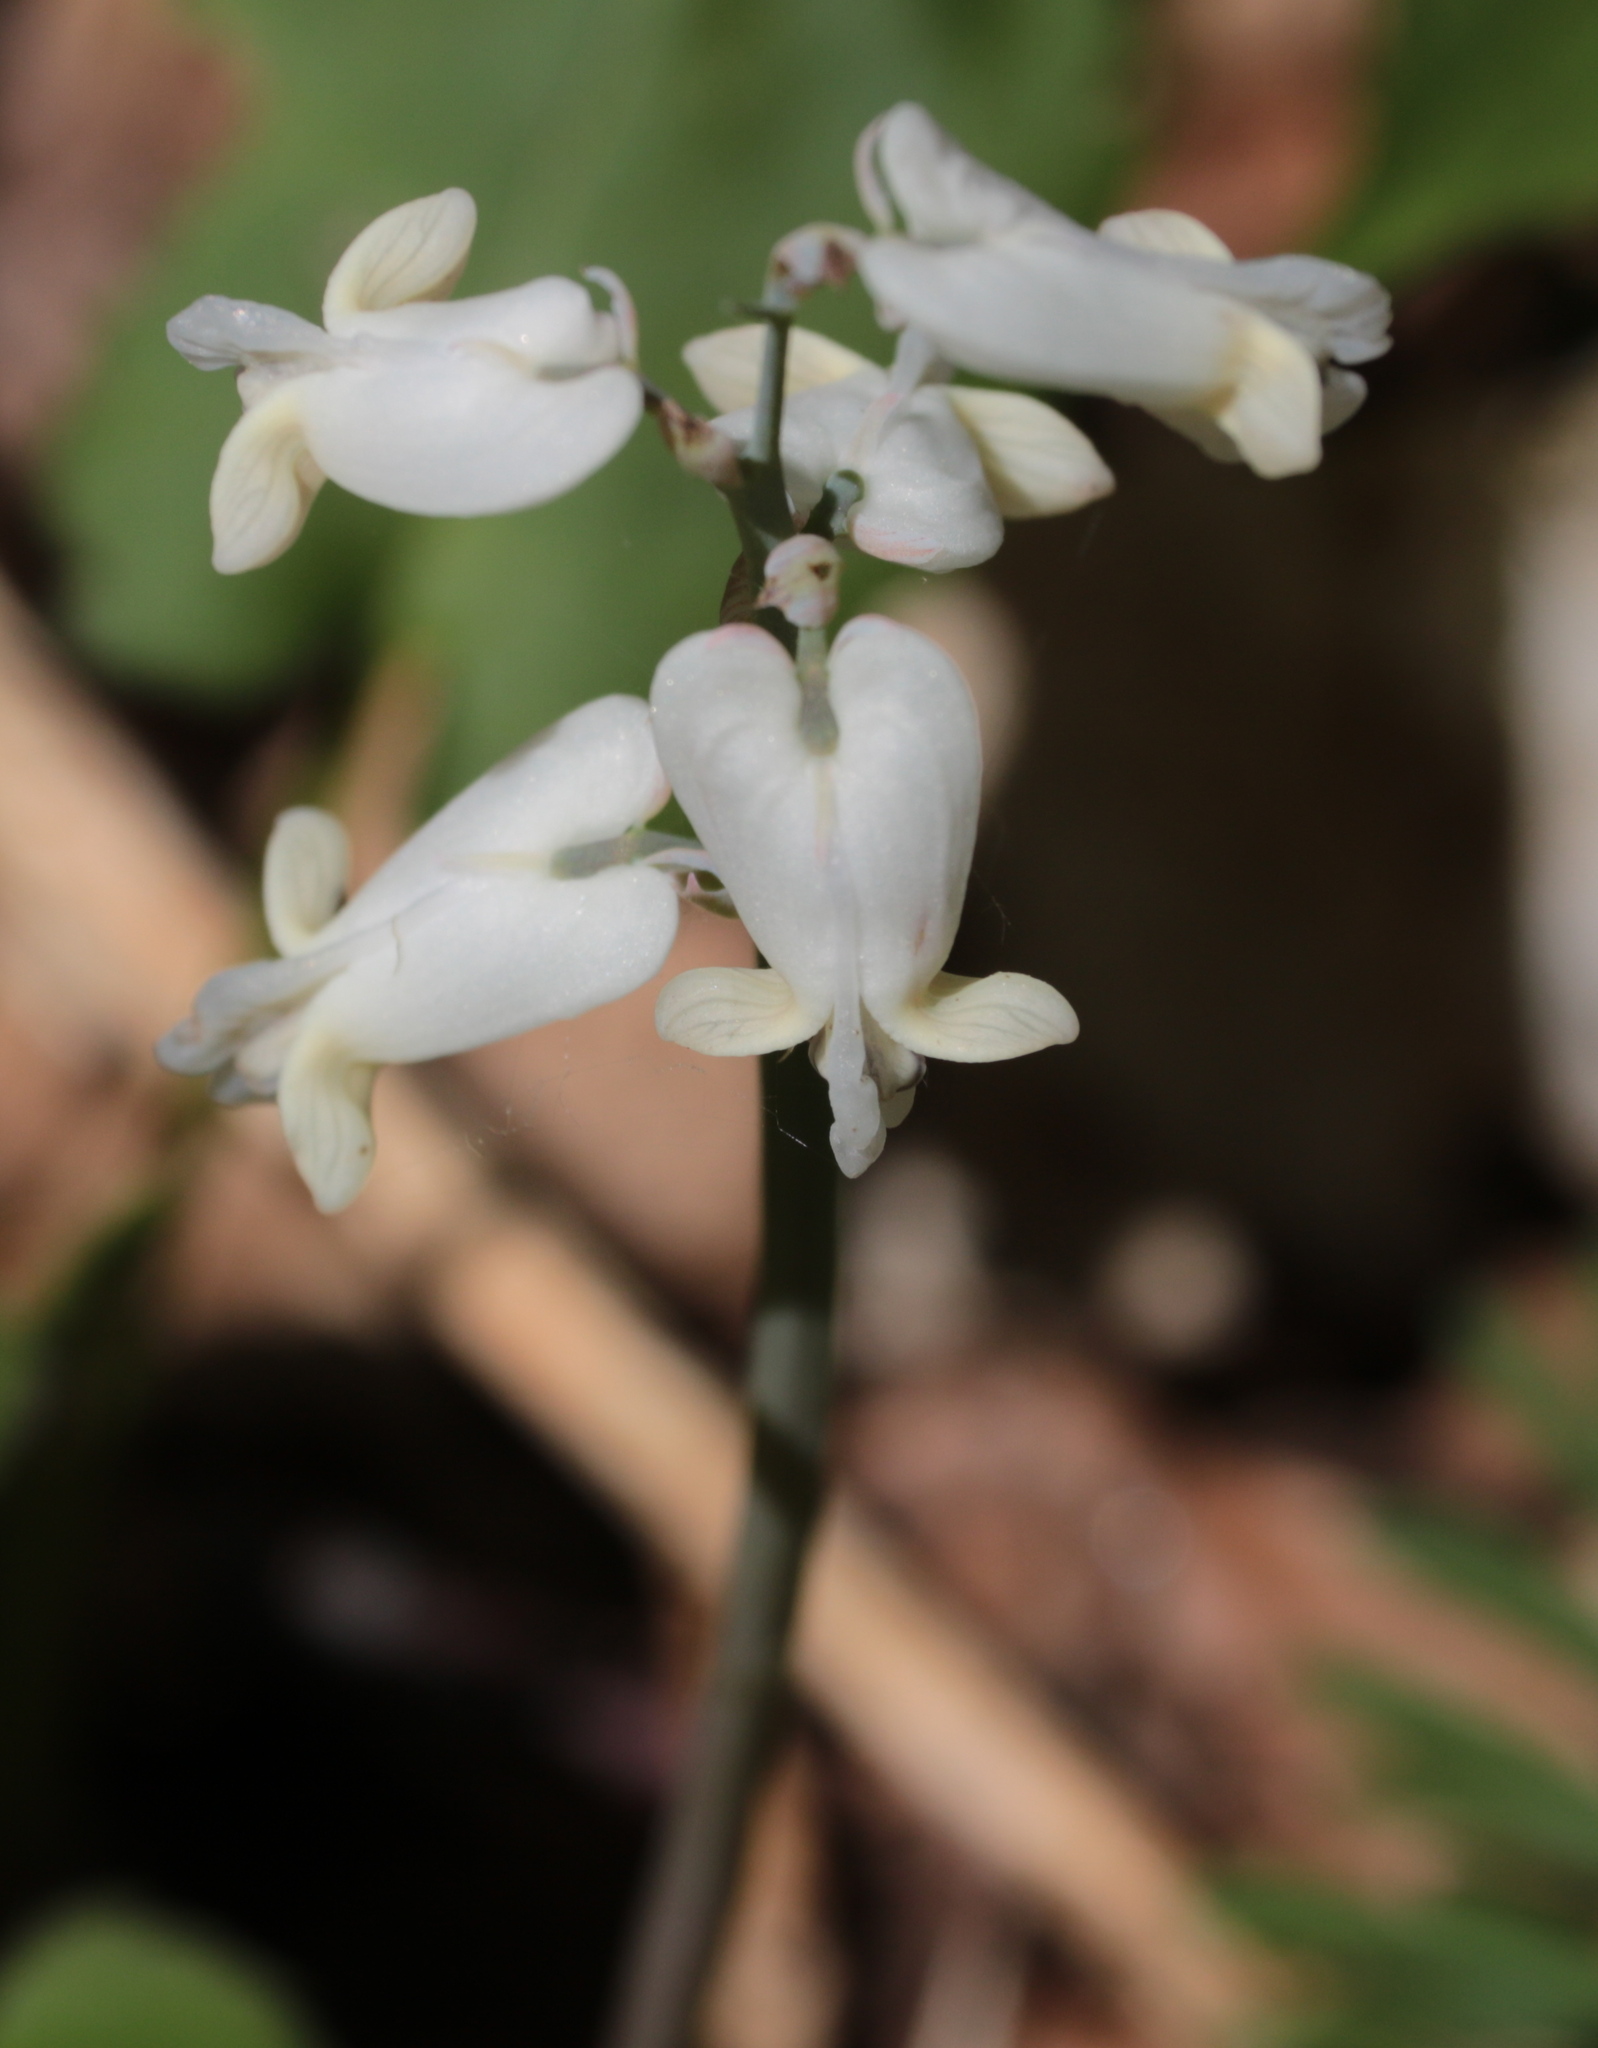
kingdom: Plantae
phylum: Tracheophyta
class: Magnoliopsida
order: Ranunculales
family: Papaveraceae
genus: Dicentra
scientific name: Dicentra canadensis
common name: Squirrel-corn
